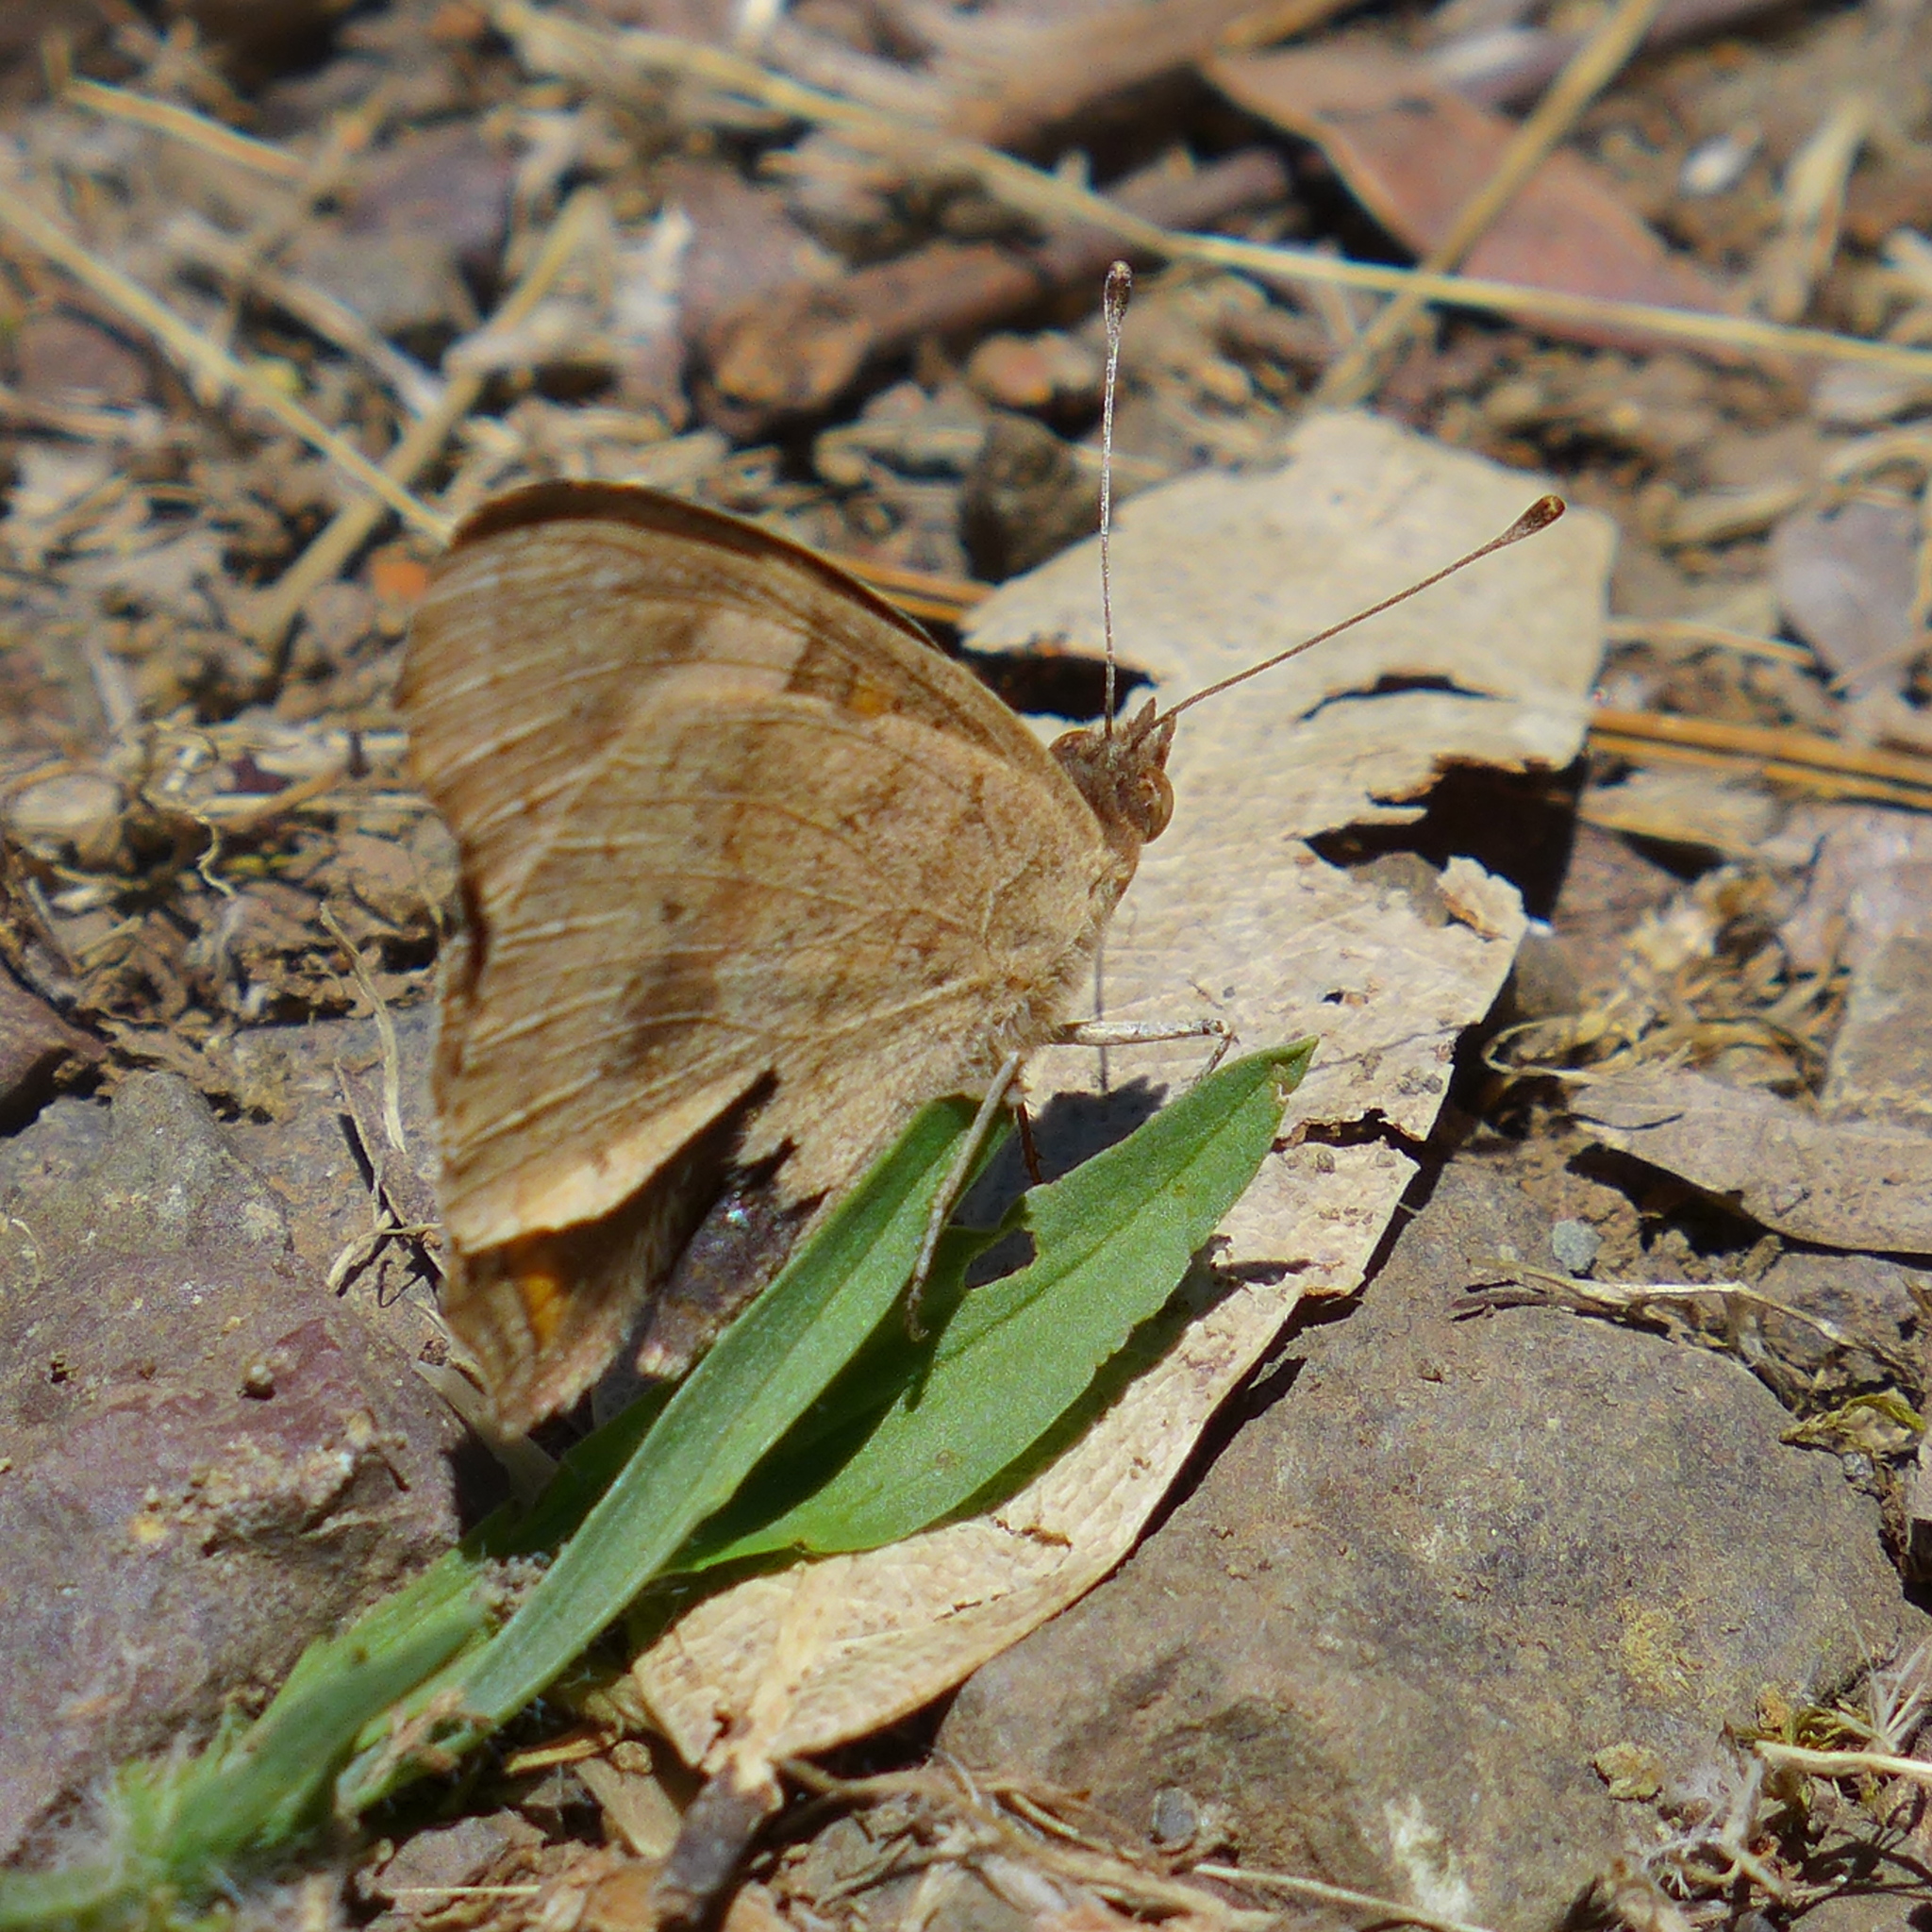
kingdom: Animalia
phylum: Arthropoda
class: Insecta
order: Lepidoptera
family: Nymphalidae
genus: Junonia
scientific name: Junonia grisea
